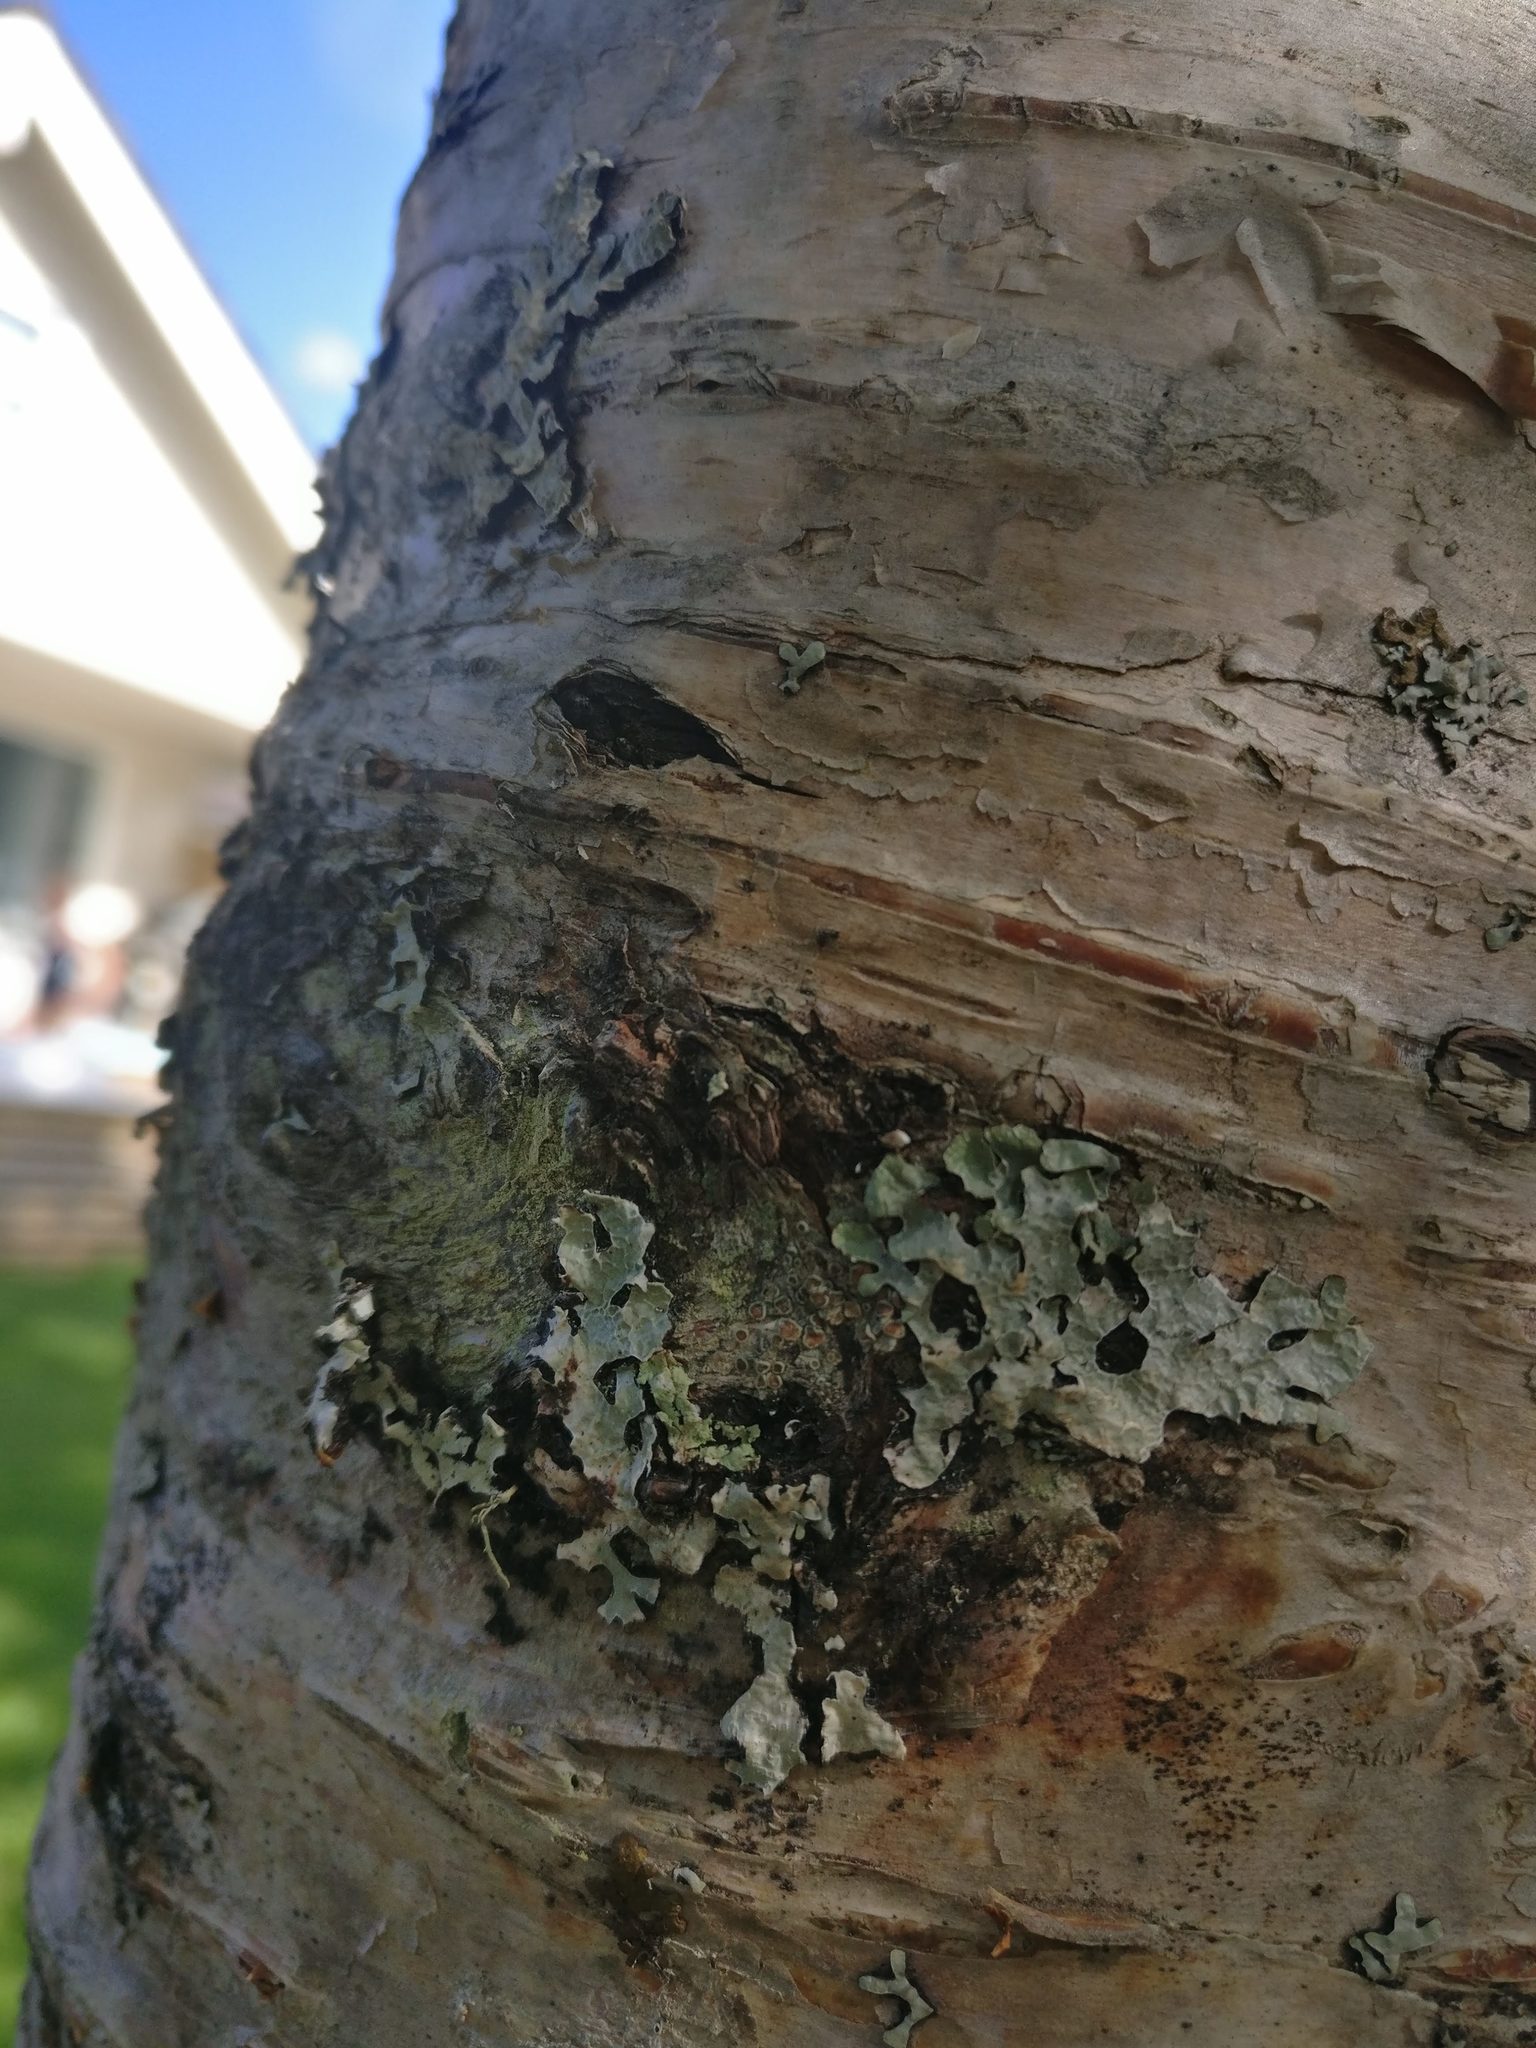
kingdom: Fungi
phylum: Ascomycota
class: Lecanoromycetes
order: Lecanorales
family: Parmeliaceae
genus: Parmelia
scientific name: Parmelia sulcata
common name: Netted shield lichen
